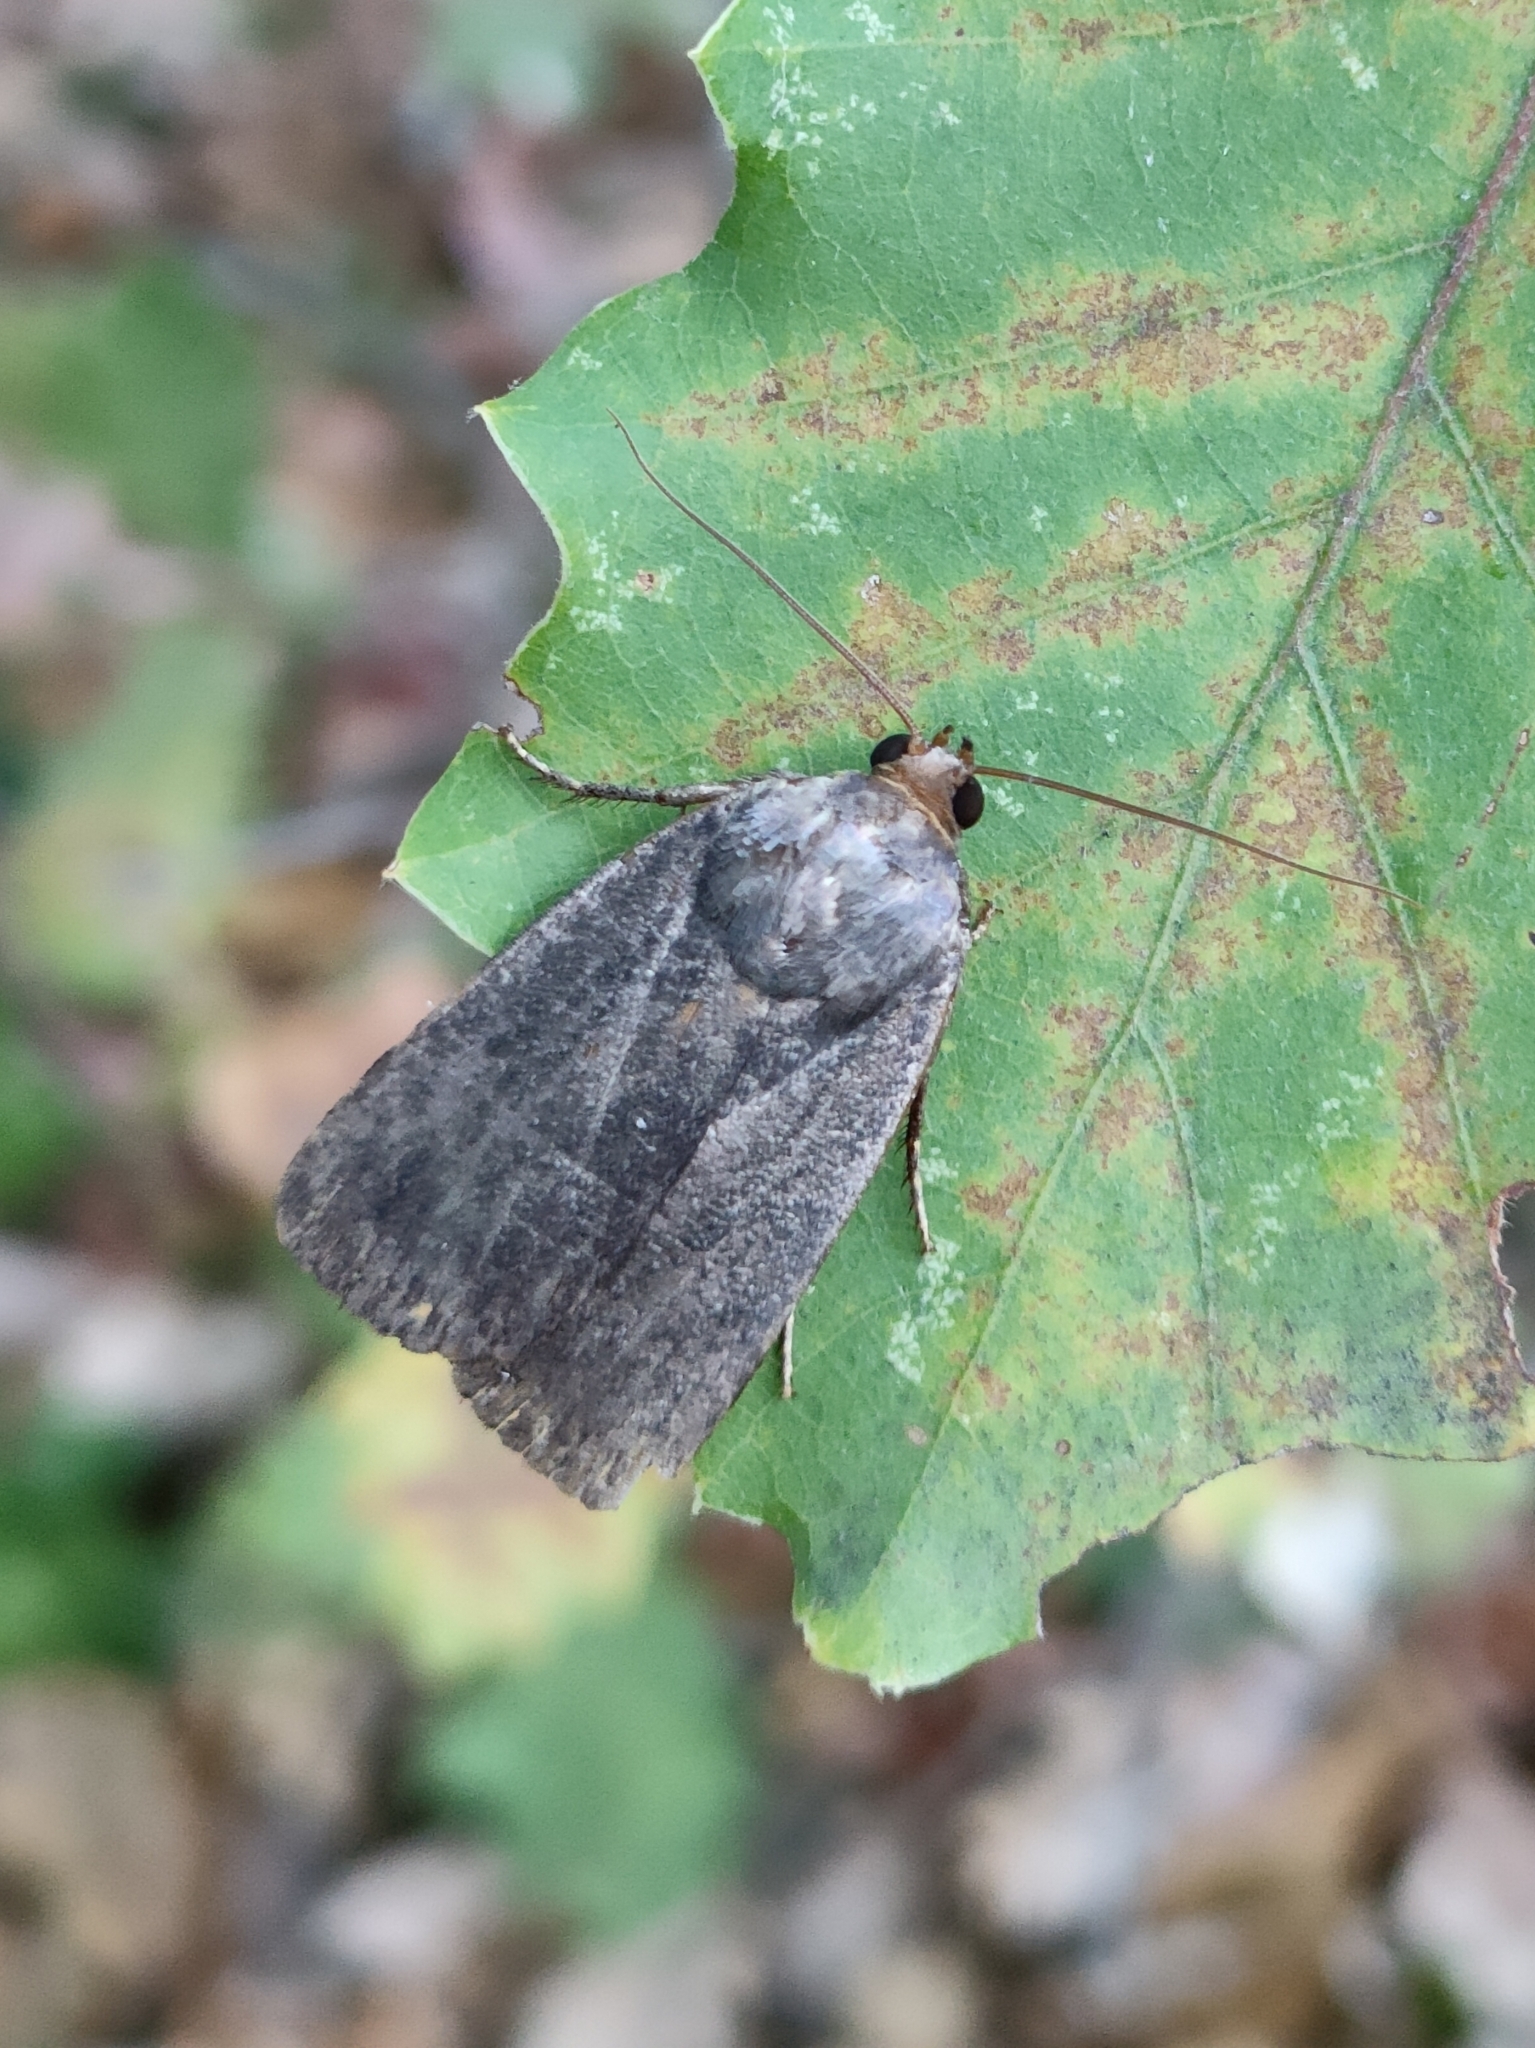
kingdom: Animalia
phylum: Arthropoda
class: Insecta
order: Lepidoptera
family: Noctuidae
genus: Amphipyra
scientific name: Amphipyra livida
